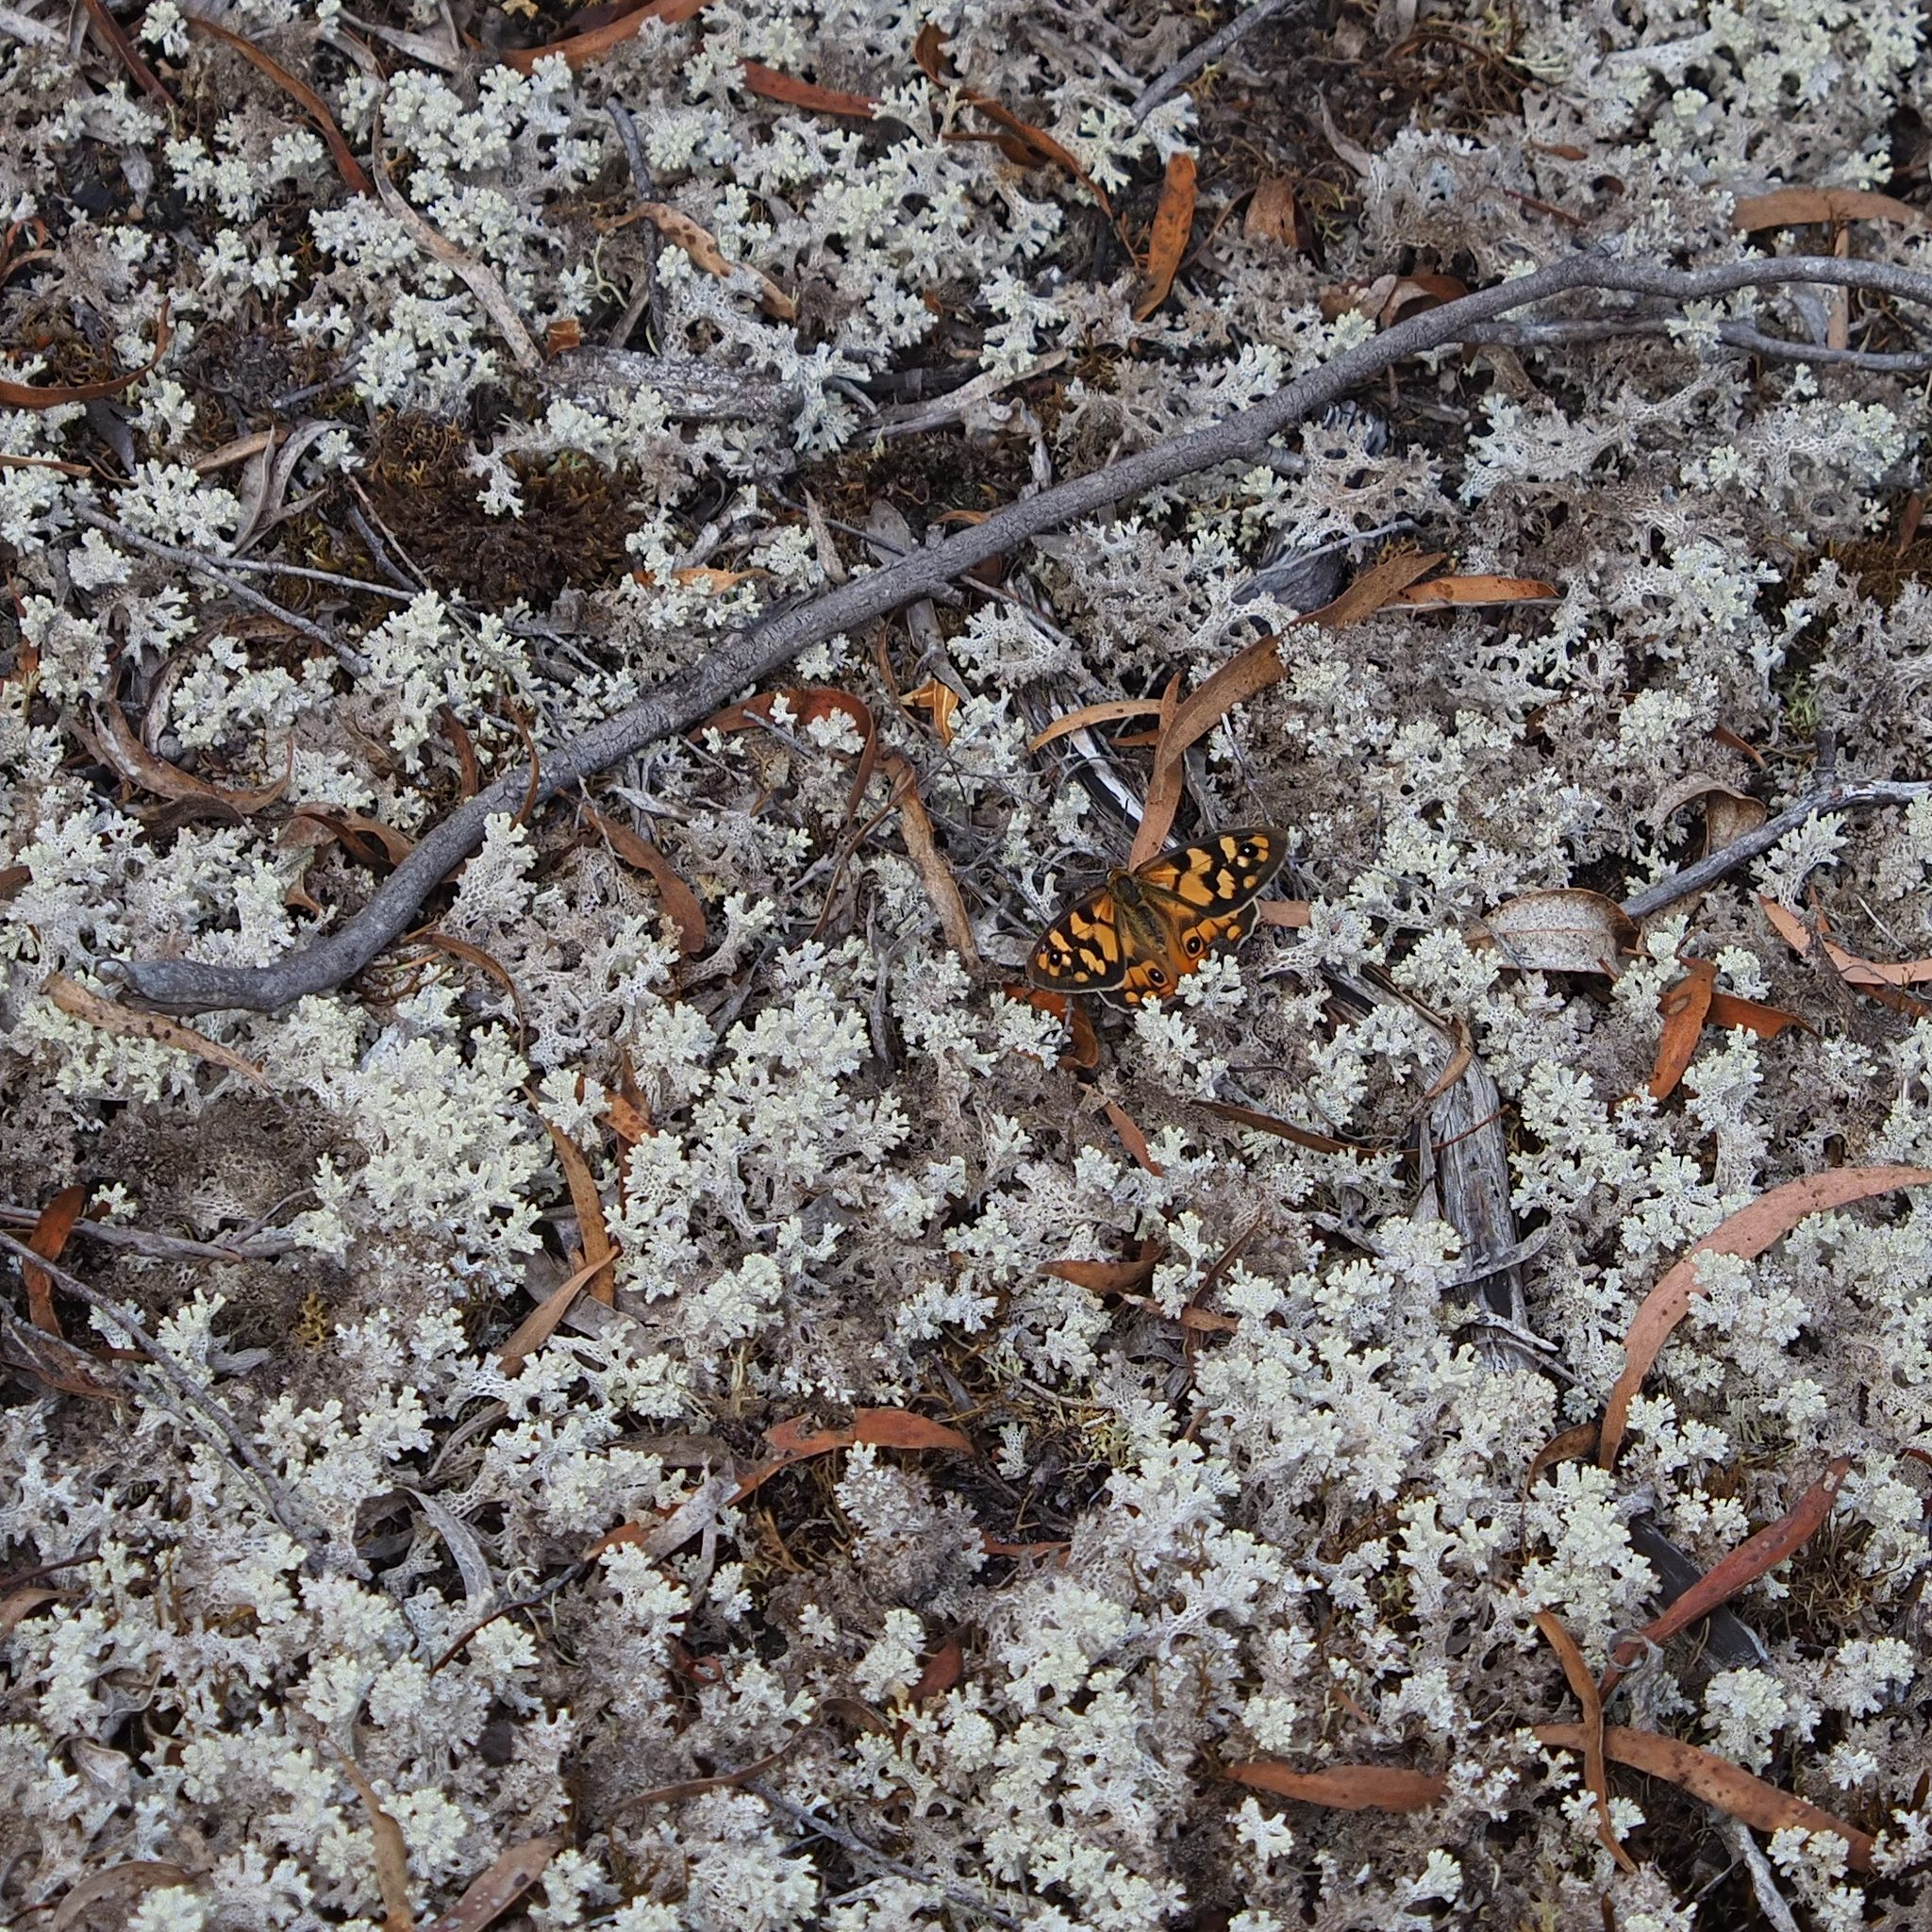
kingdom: Animalia
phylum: Arthropoda
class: Insecta
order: Lepidoptera
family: Nymphalidae
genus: Heteronympha
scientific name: Heteronympha penelope
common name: Shouldered brown
